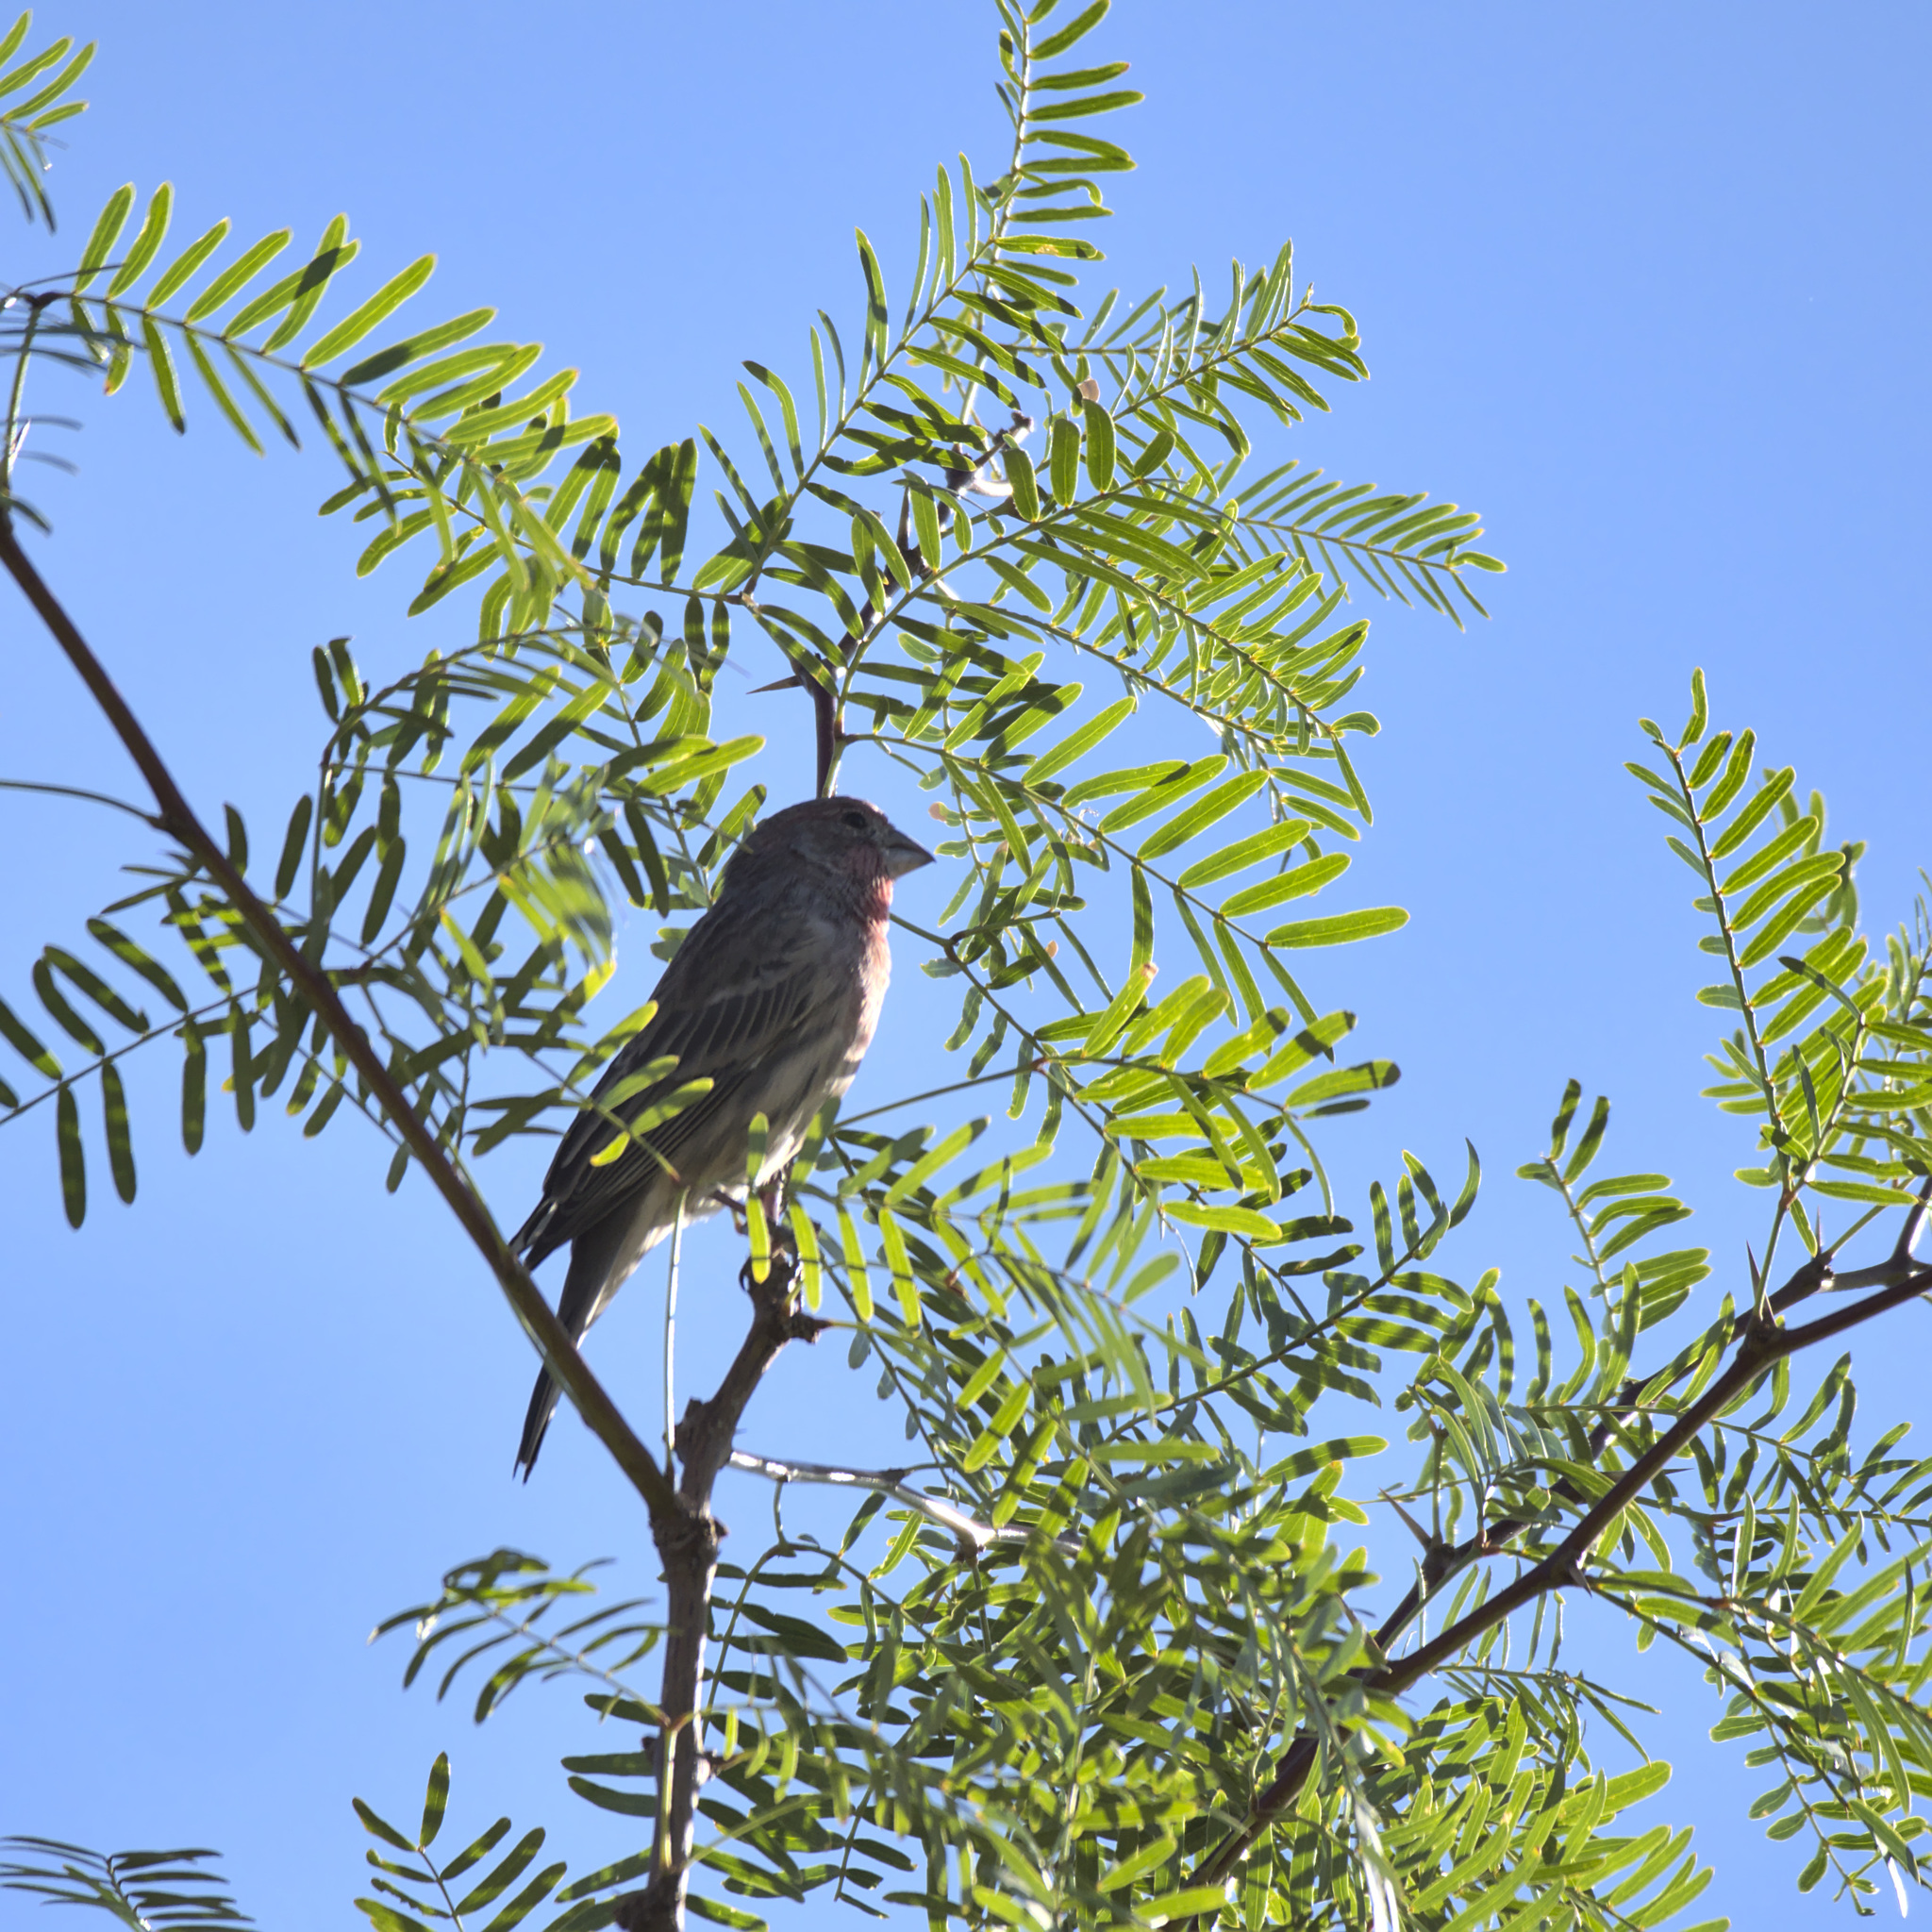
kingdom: Animalia
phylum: Chordata
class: Aves
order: Passeriformes
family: Fringillidae
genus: Haemorhous
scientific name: Haemorhous mexicanus
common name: House finch
